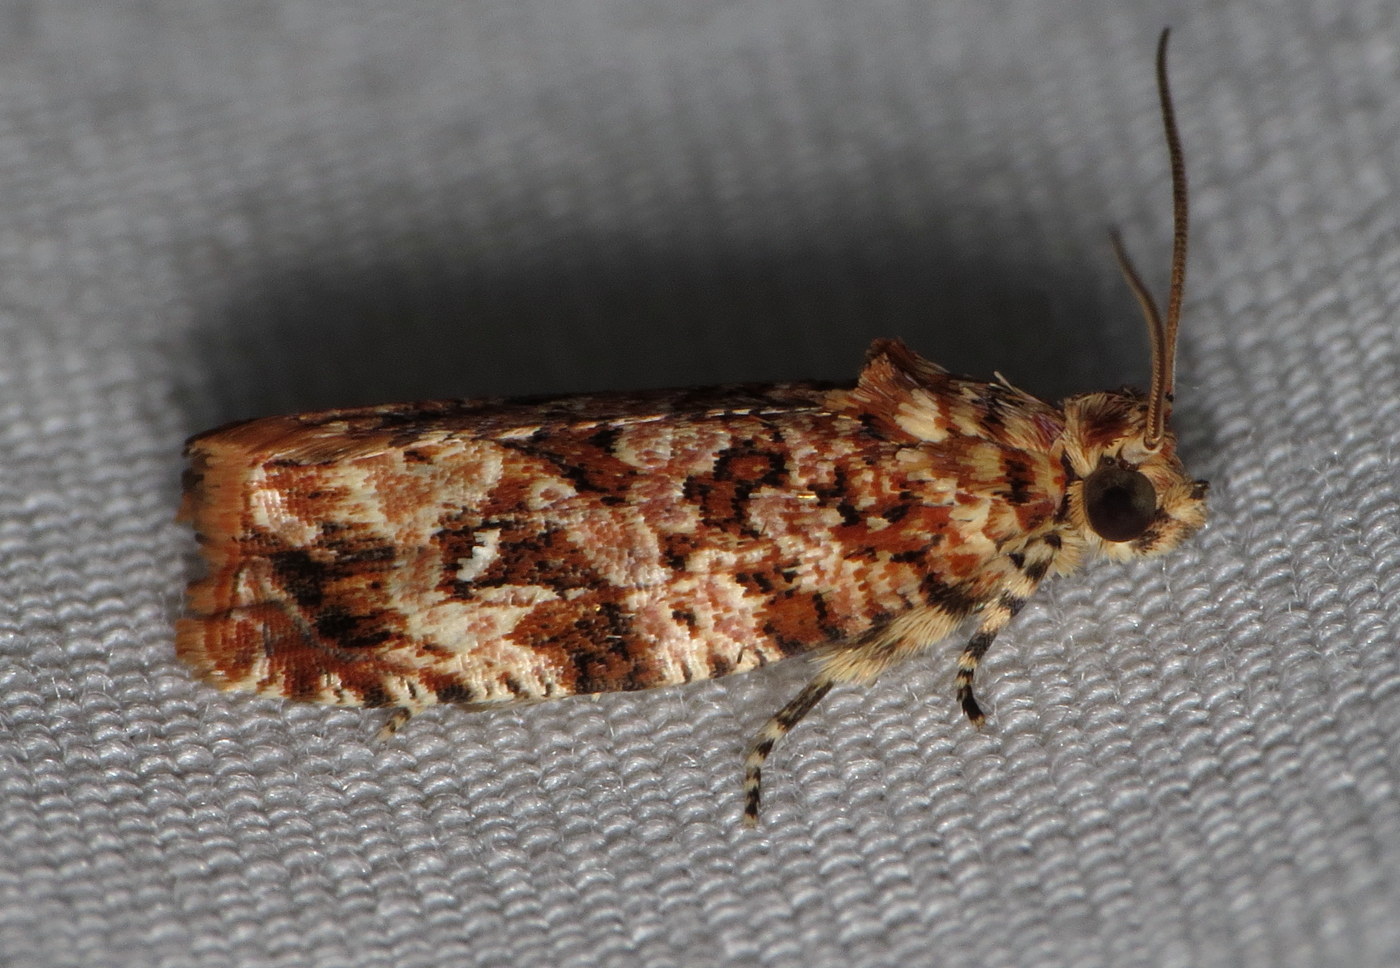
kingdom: Animalia
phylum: Arthropoda
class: Insecta
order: Lepidoptera
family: Tortricidae
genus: Phaecasiophora
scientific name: Phaecasiophora niveiguttana
